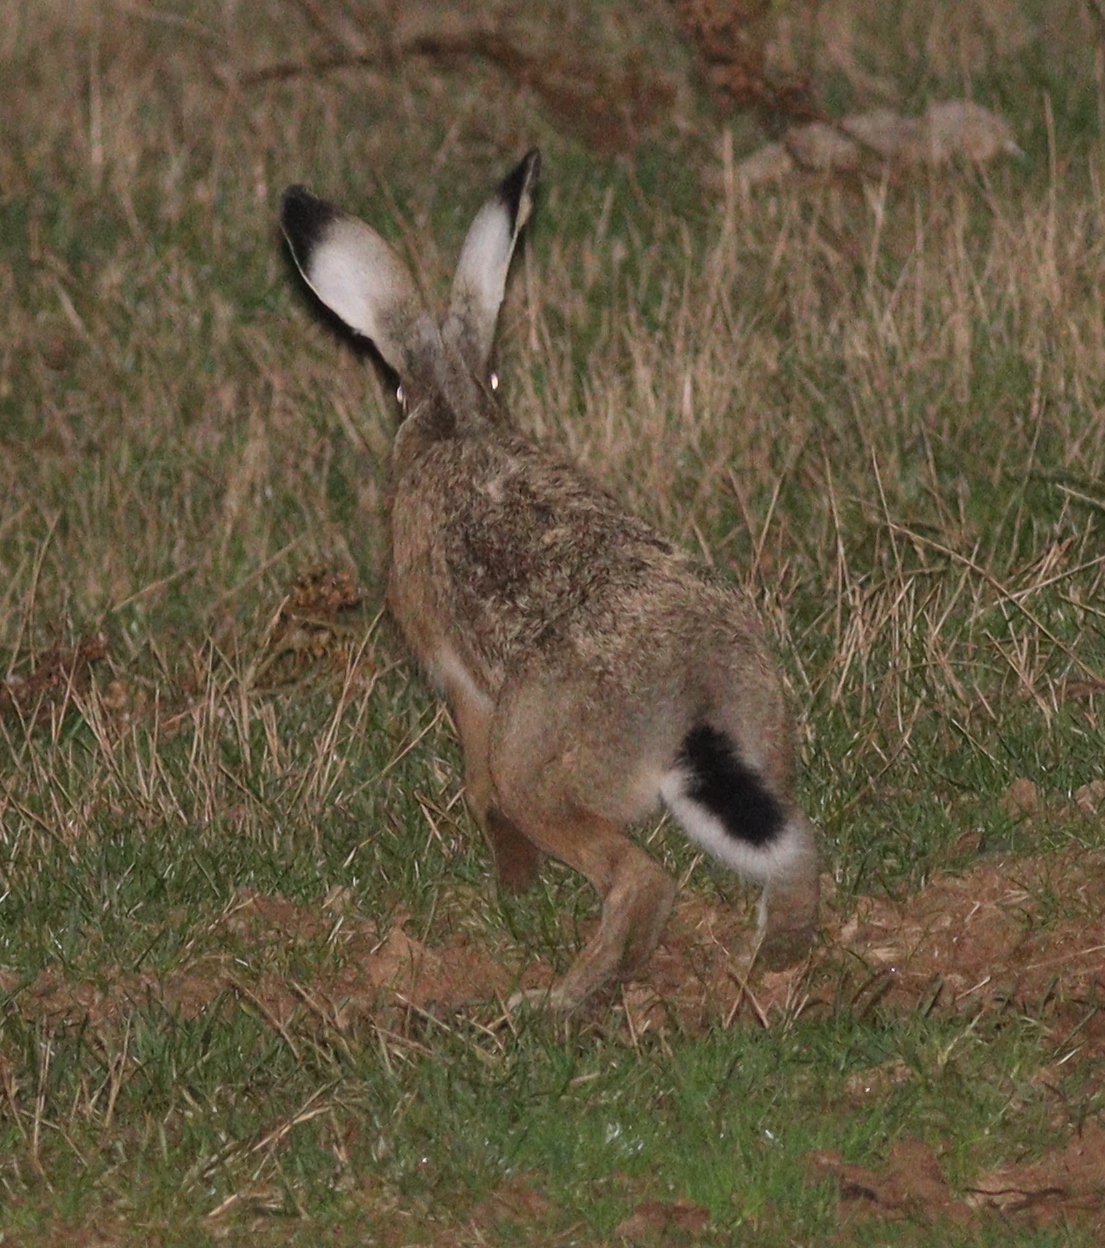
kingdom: Animalia
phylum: Chordata
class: Mammalia
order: Lagomorpha
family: Leporidae
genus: Lepus
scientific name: Lepus castroviejoi
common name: Broom hare
